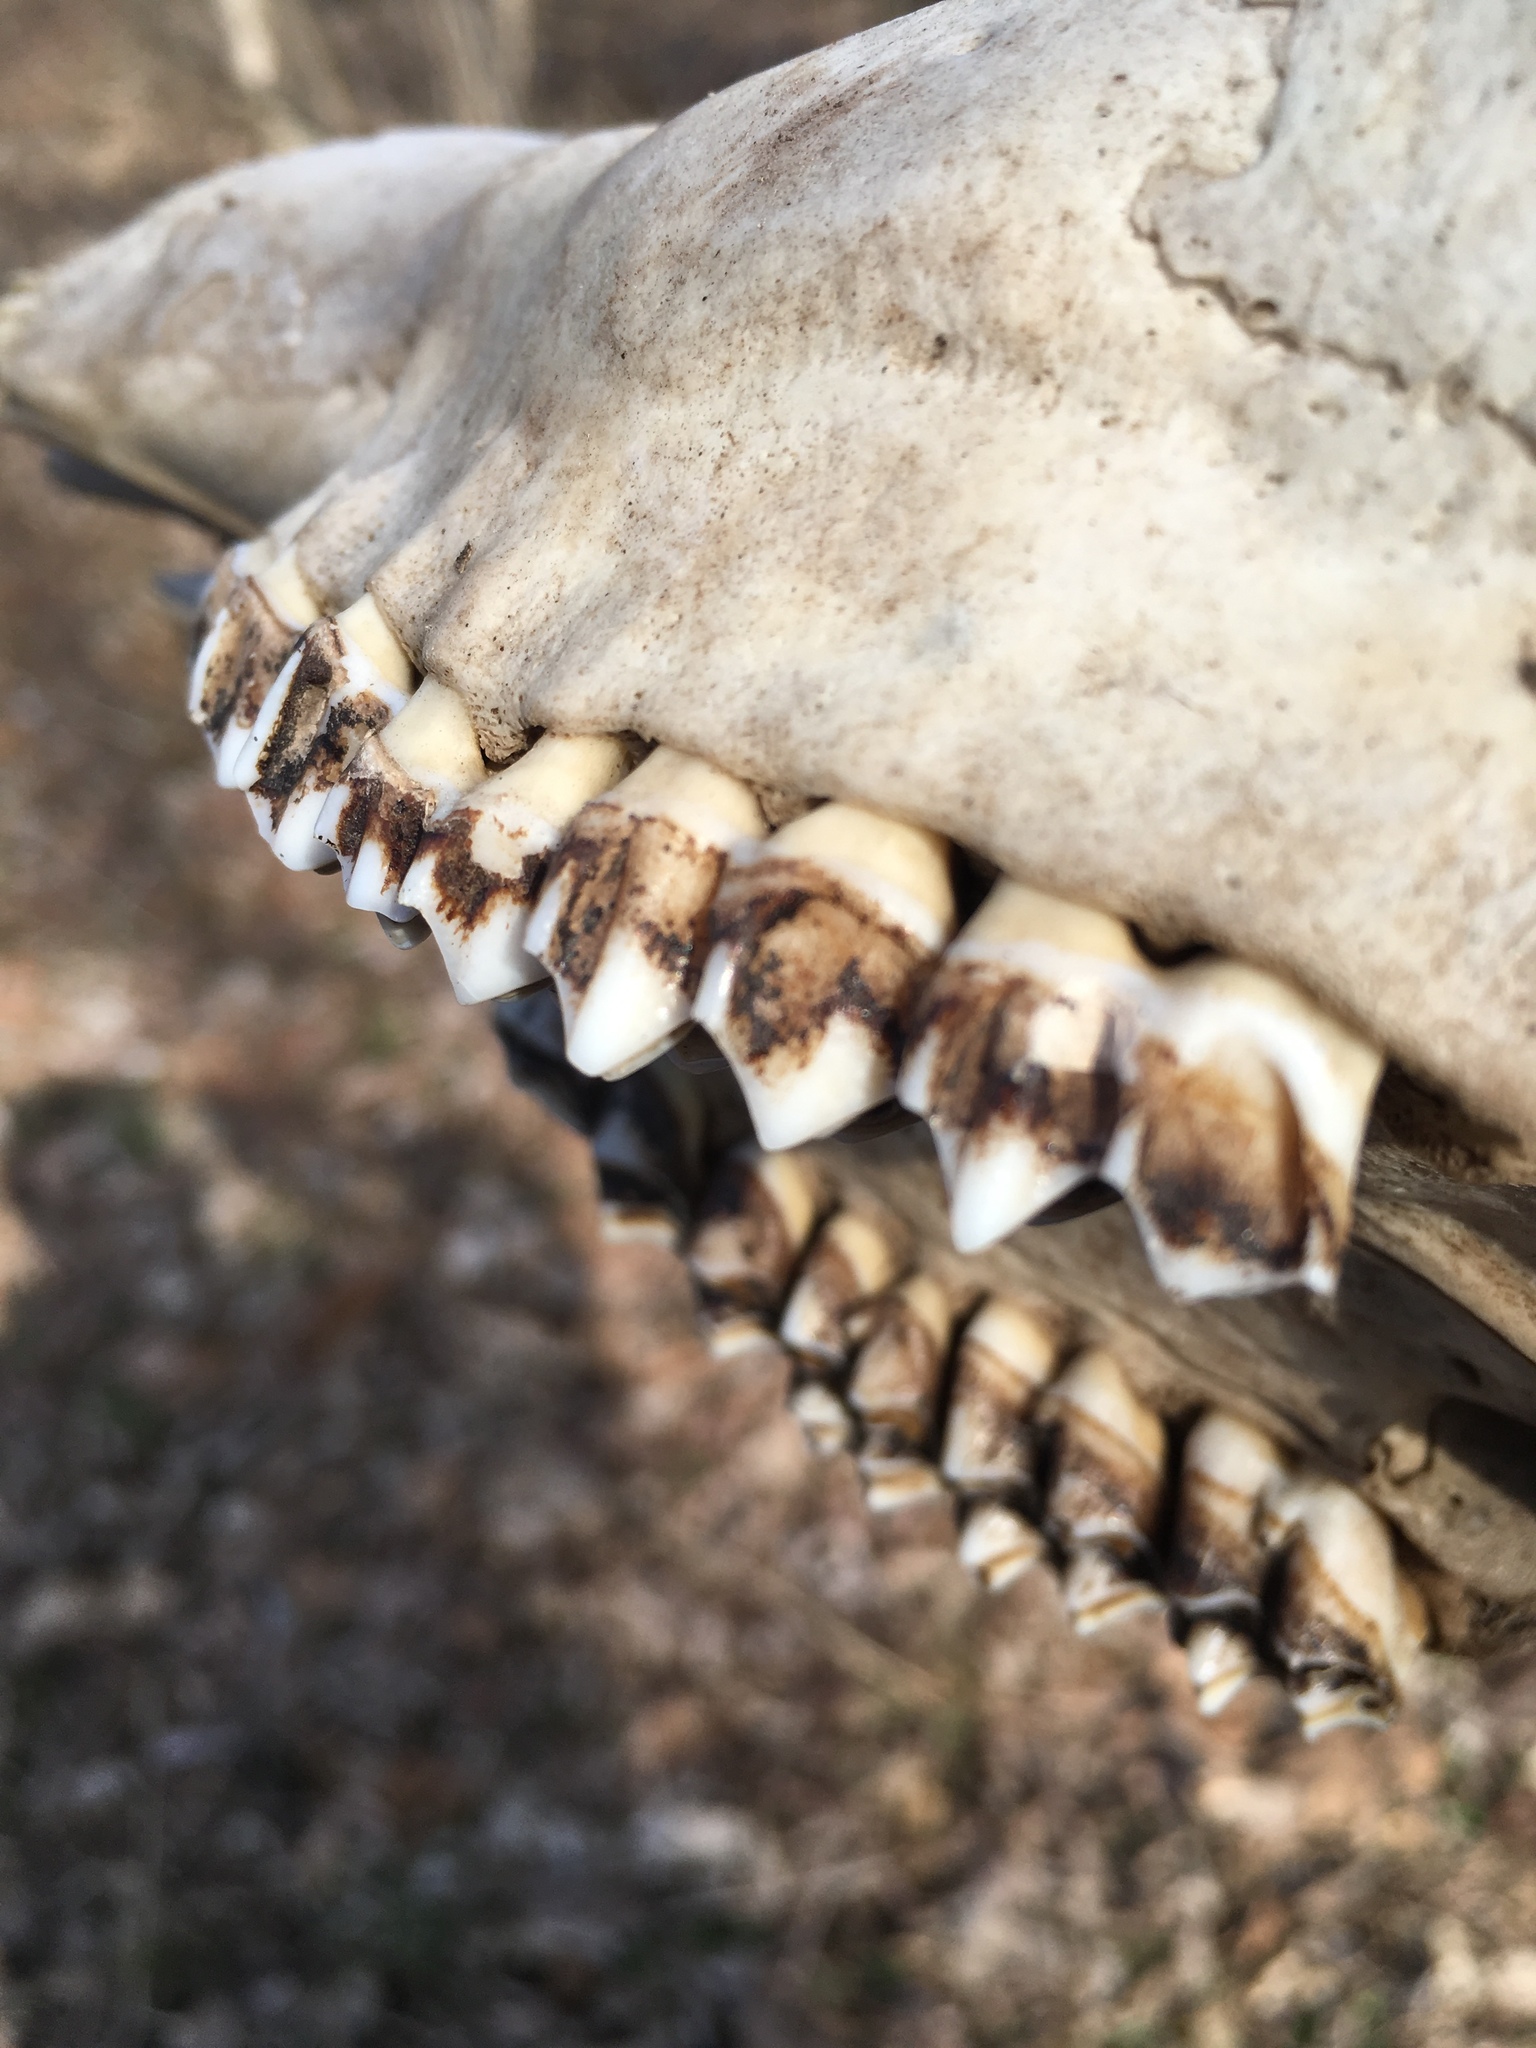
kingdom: Animalia
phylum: Chordata
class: Mammalia
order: Artiodactyla
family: Cervidae
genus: Odocoileus
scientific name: Odocoileus virginianus
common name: White-tailed deer
